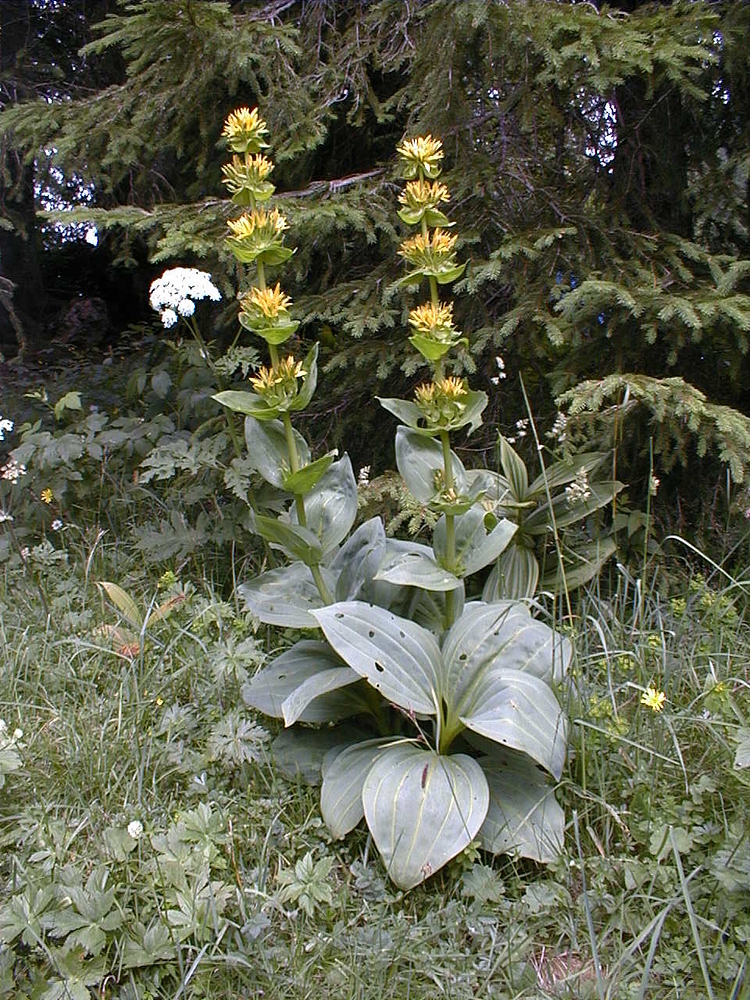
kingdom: Plantae
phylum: Tracheophyta
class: Magnoliopsida
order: Gentianales
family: Gentianaceae
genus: Gentiana
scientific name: Gentiana lutea
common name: Great yellow gentian
